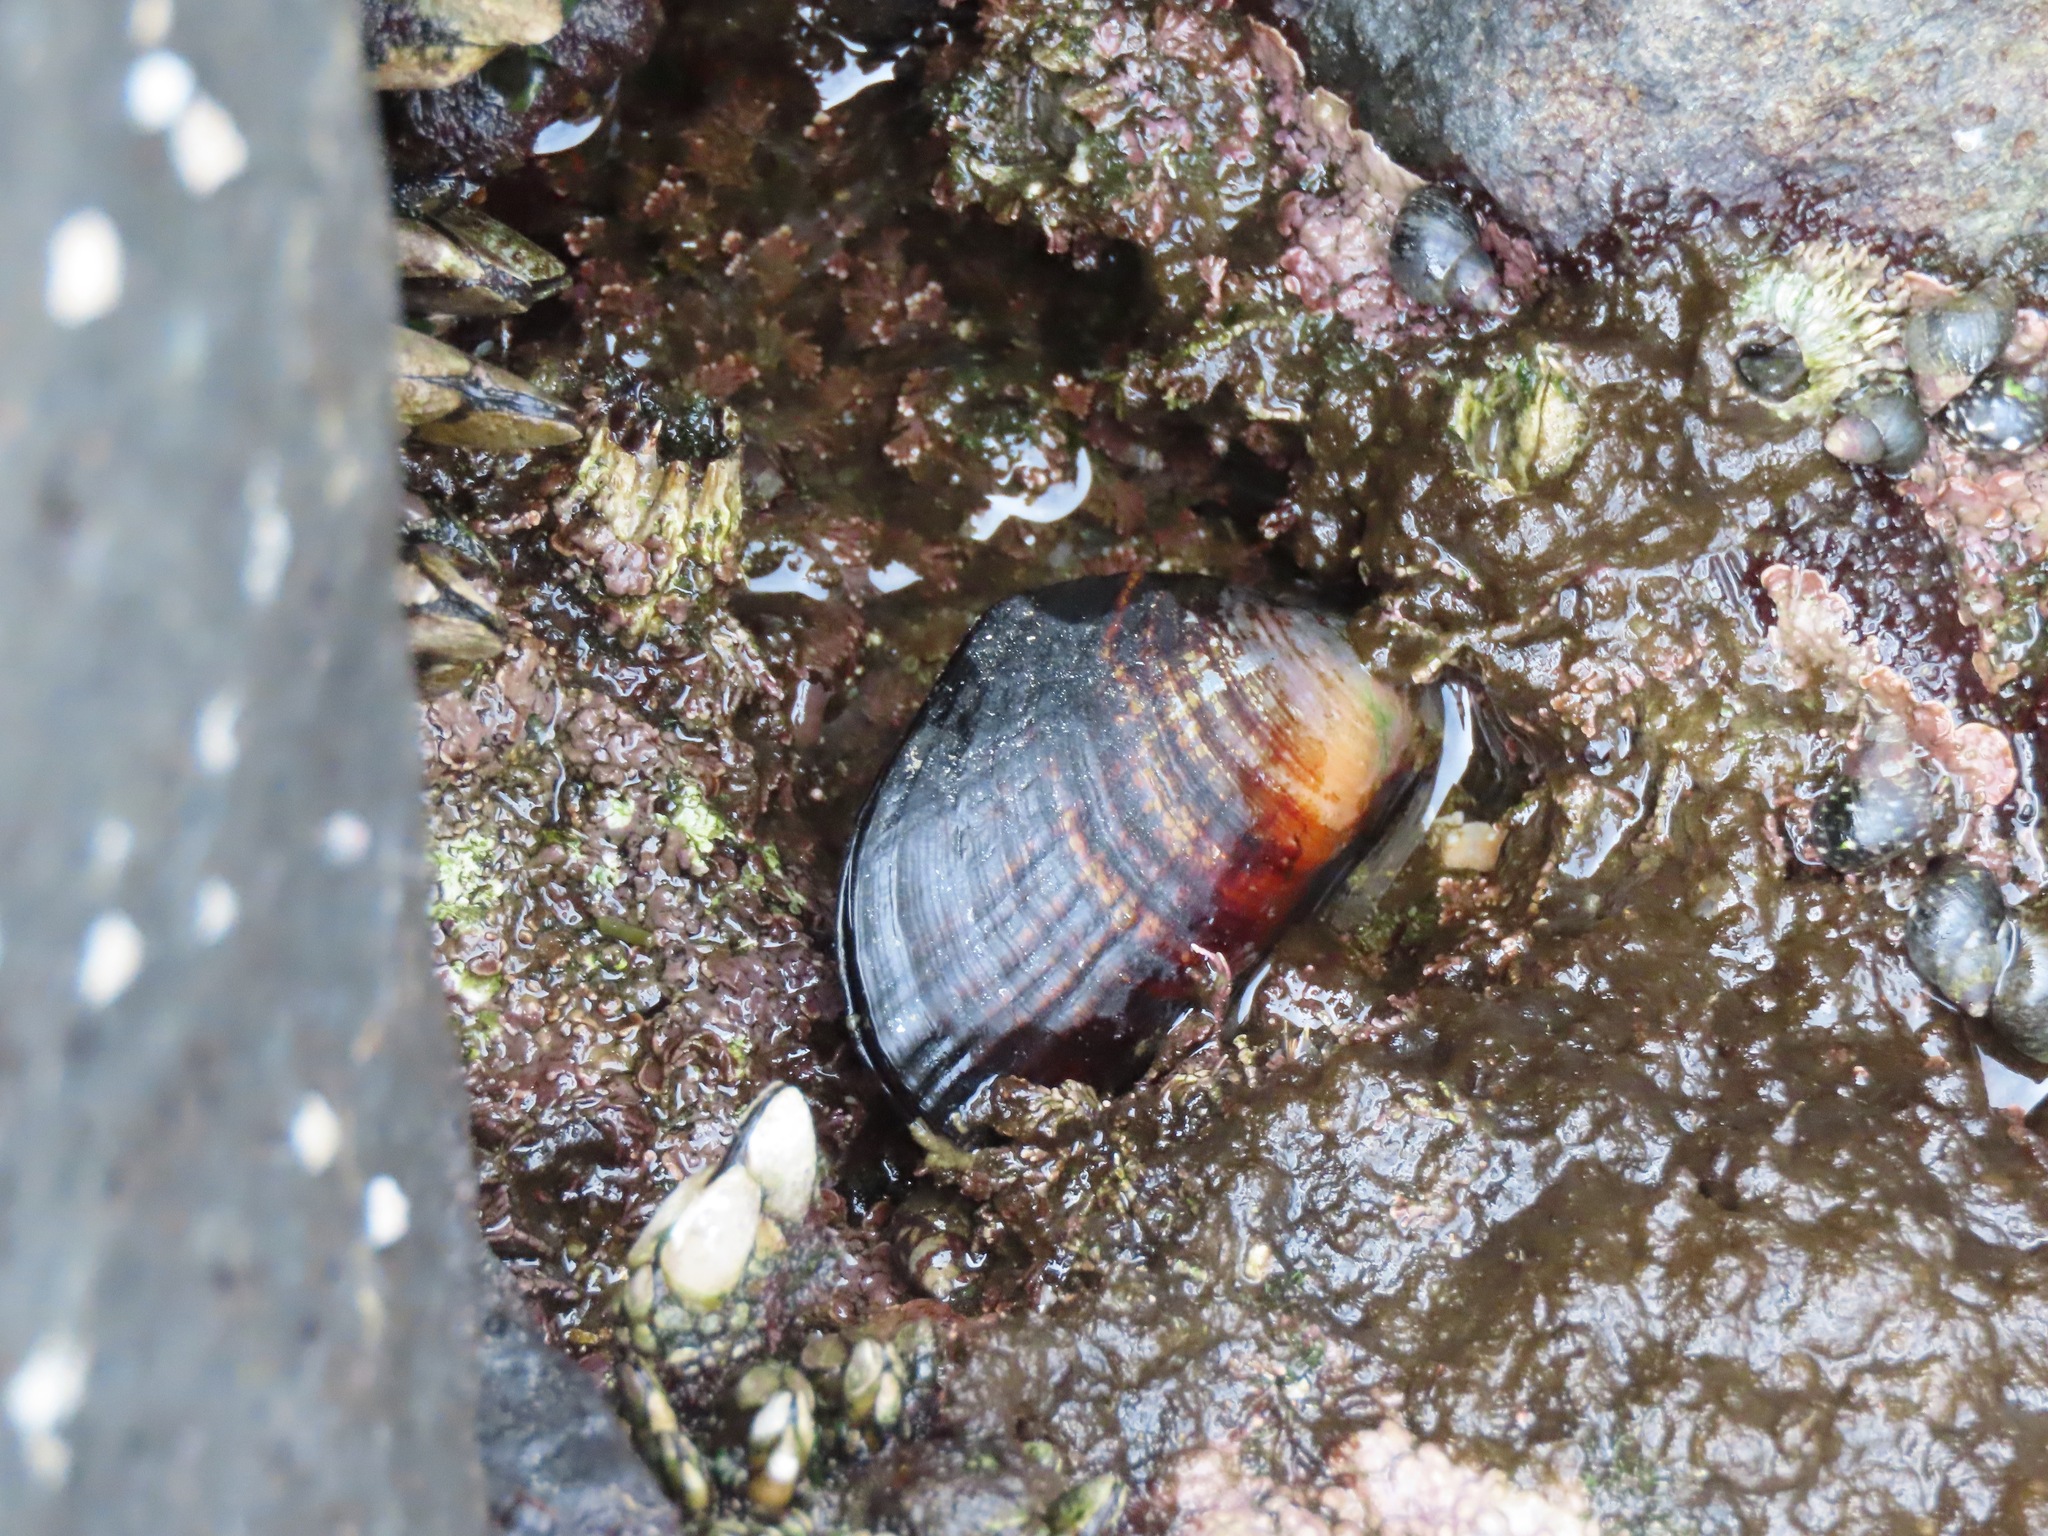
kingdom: Animalia
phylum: Mollusca
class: Bivalvia
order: Mytilida
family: Mytilidae
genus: Mytilus
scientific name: Mytilus californianus
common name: California mussel
